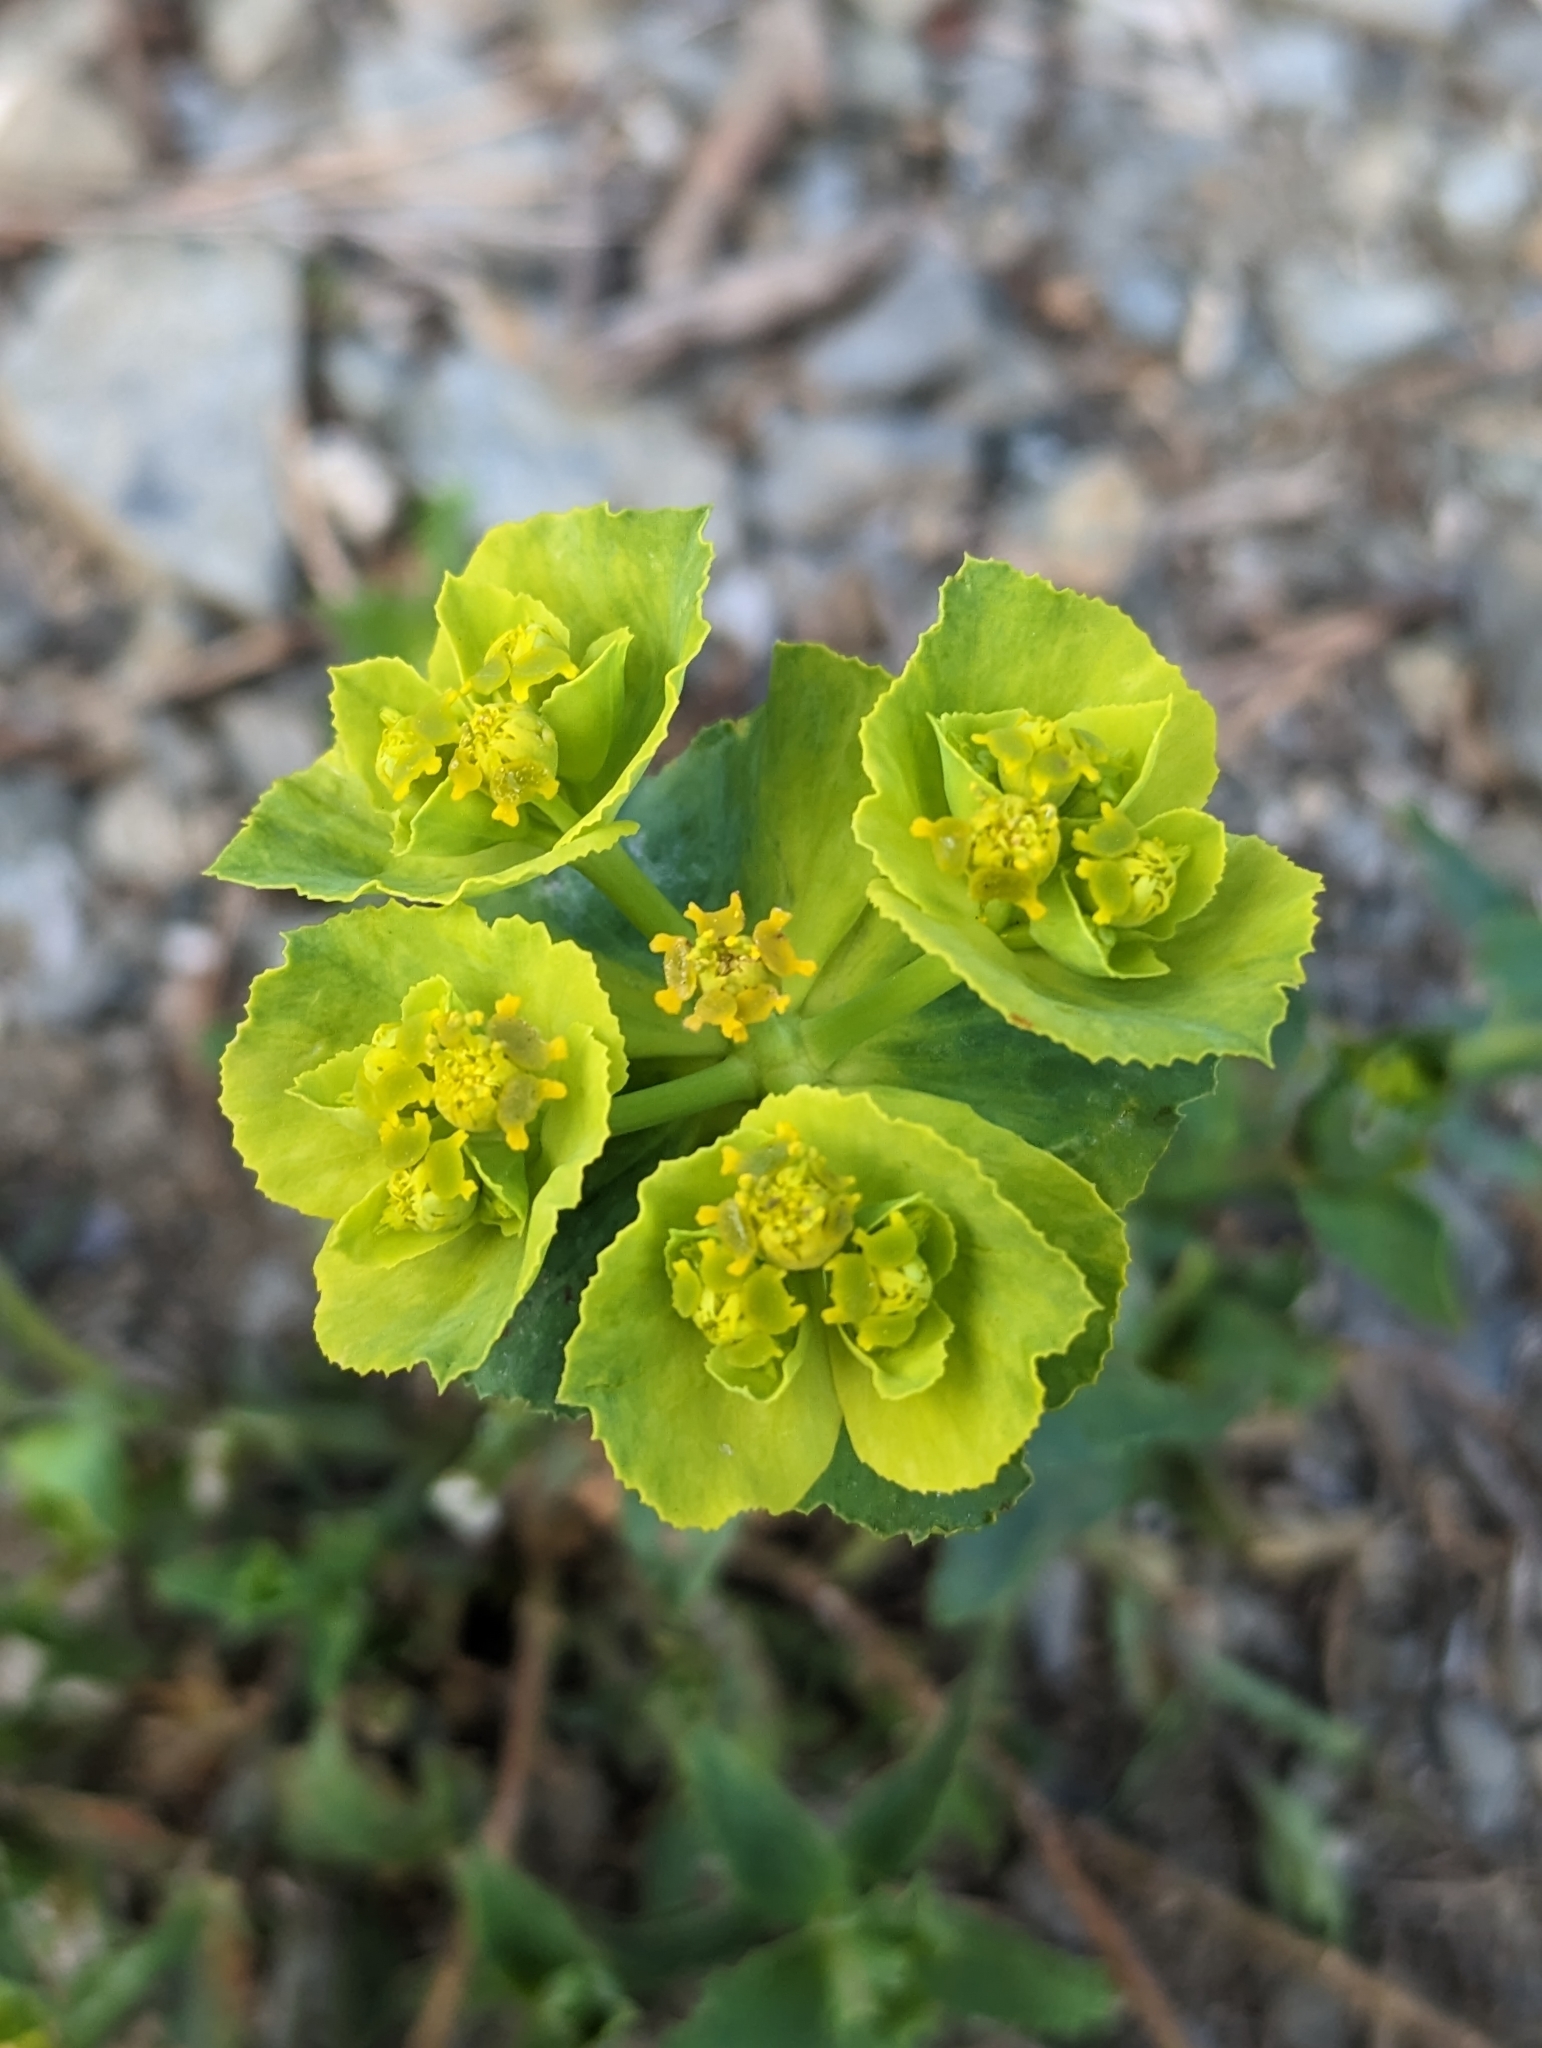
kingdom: Plantae
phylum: Tracheophyta
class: Magnoliopsida
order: Malpighiales
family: Euphorbiaceae
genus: Euphorbia
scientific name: Euphorbia serrata
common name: Serrate spurge
